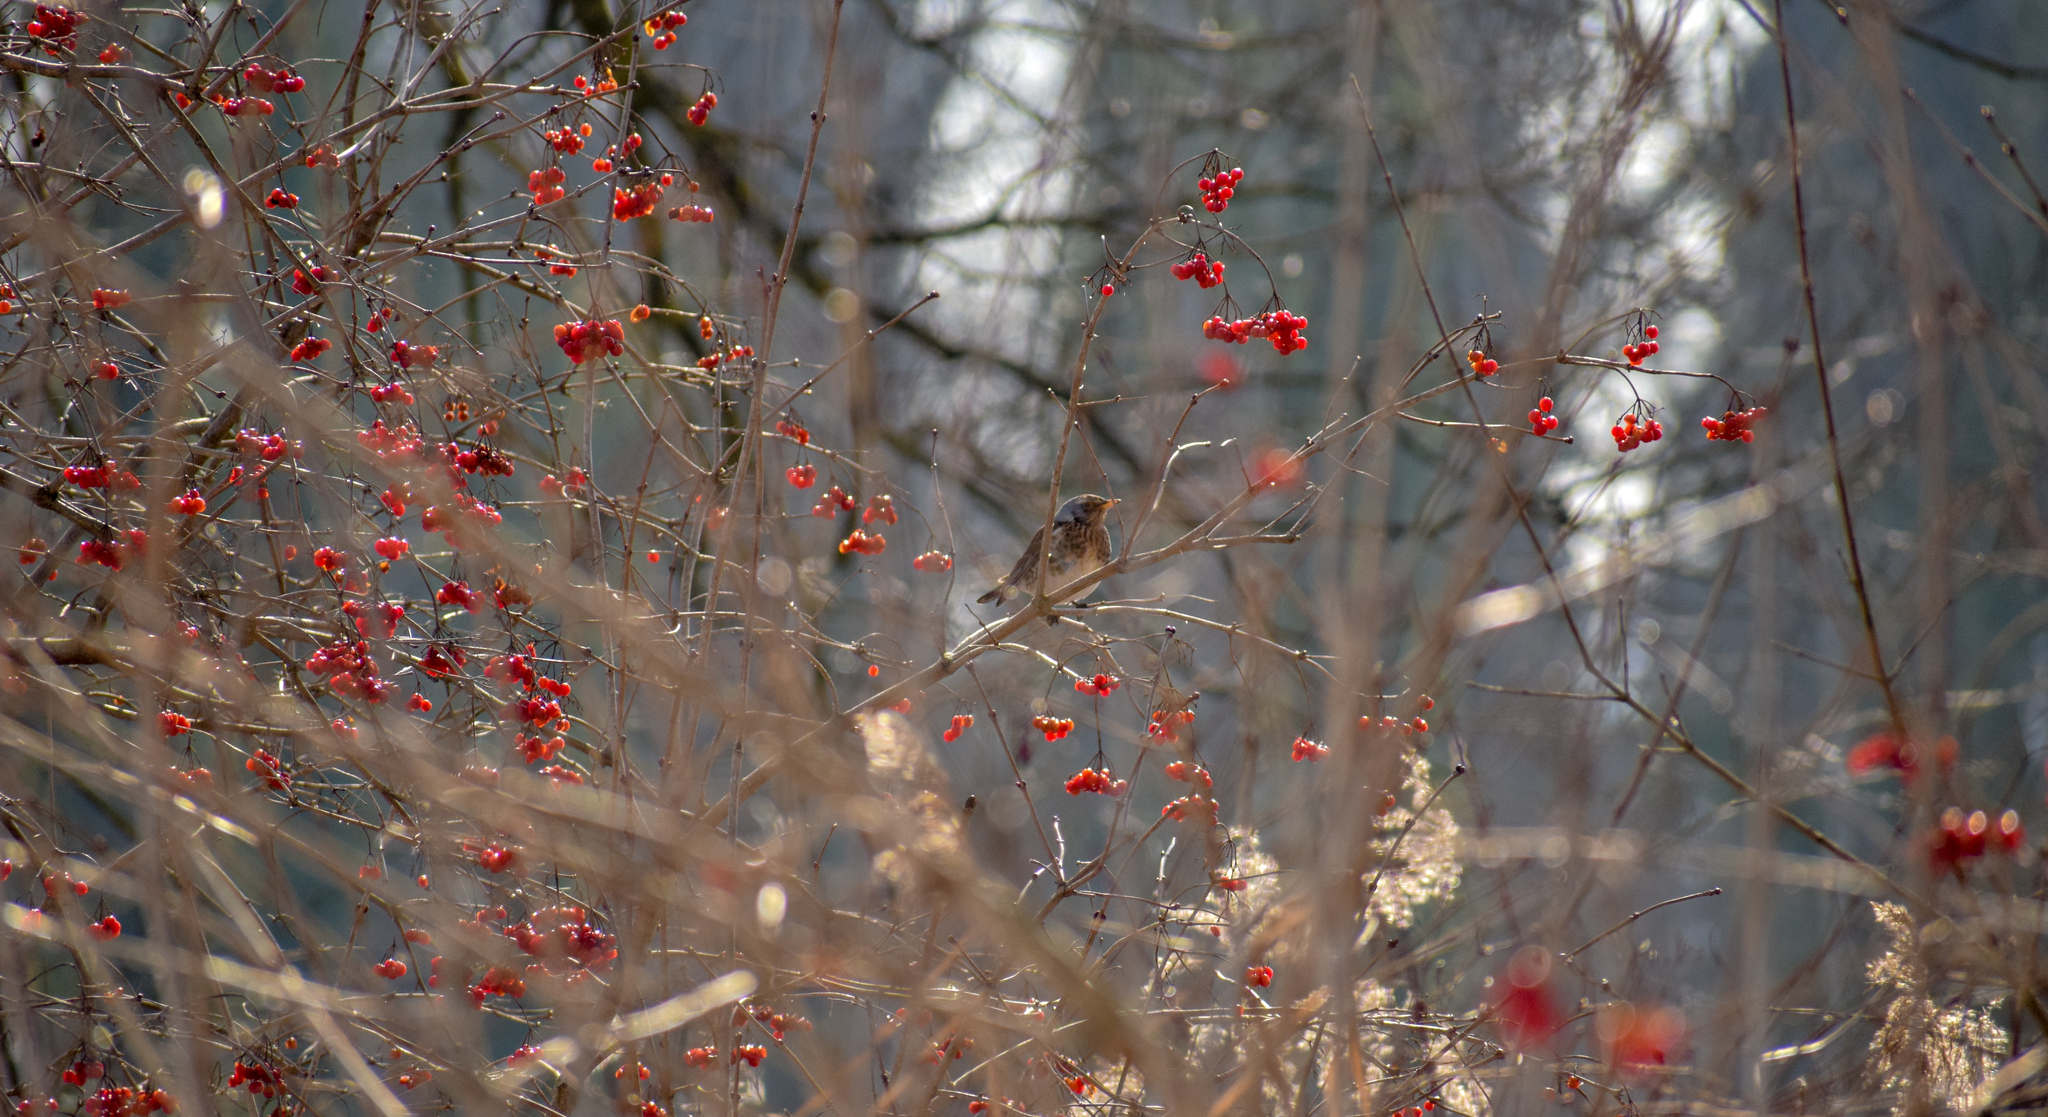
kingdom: Animalia
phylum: Chordata
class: Aves
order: Passeriformes
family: Turdidae
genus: Turdus
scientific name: Turdus pilaris
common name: Fieldfare
